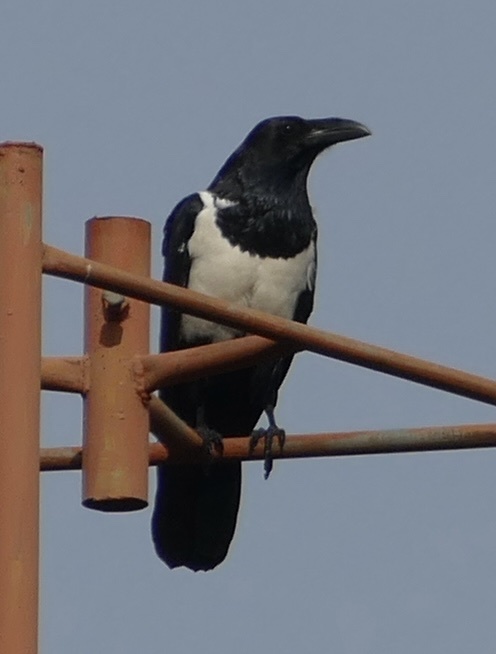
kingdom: Animalia
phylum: Chordata
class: Aves
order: Passeriformes
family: Corvidae
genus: Corvus
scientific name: Corvus albus
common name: Pied crow
